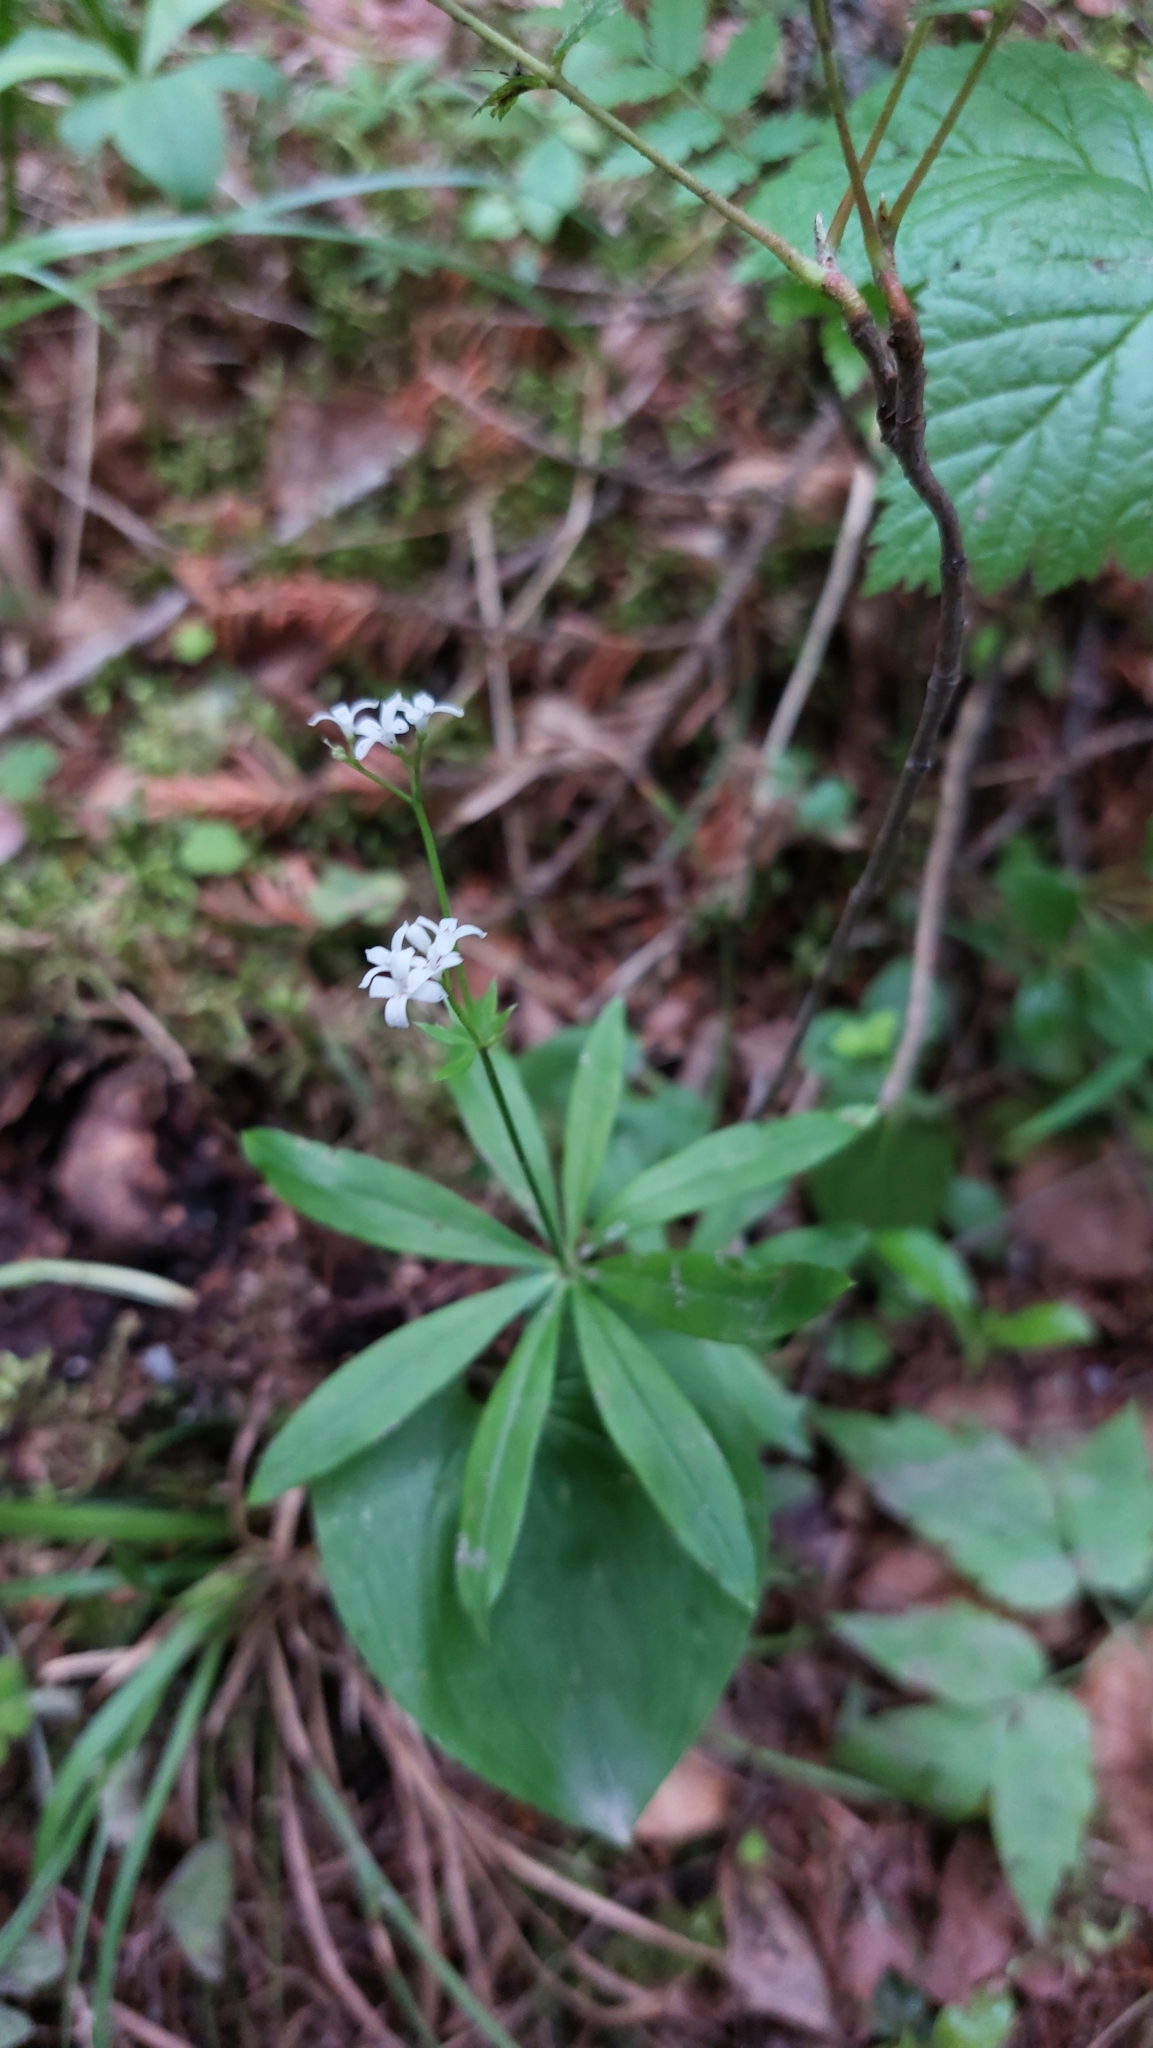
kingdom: Plantae
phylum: Tracheophyta
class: Magnoliopsida
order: Gentianales
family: Rubiaceae
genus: Galium
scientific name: Galium odoratum
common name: Sweet woodruff
